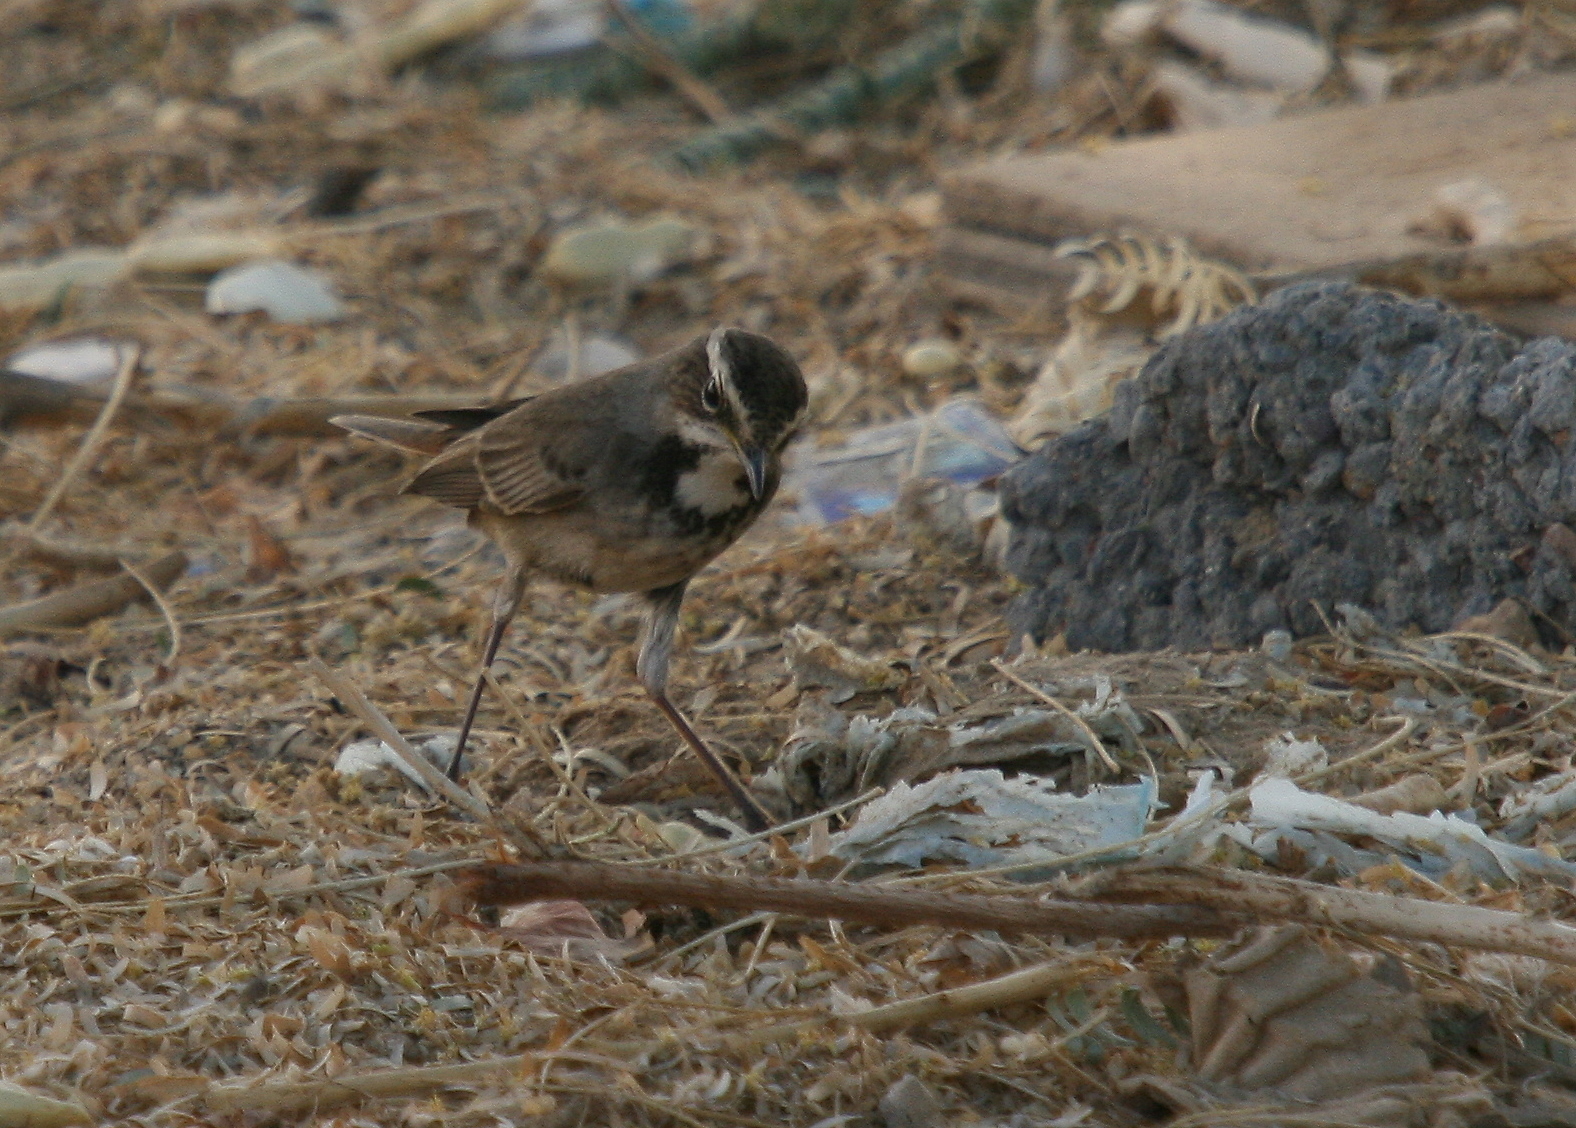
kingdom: Animalia
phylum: Chordata
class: Aves
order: Passeriformes
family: Muscicapidae
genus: Luscinia
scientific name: Luscinia svecica
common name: Bluethroat
